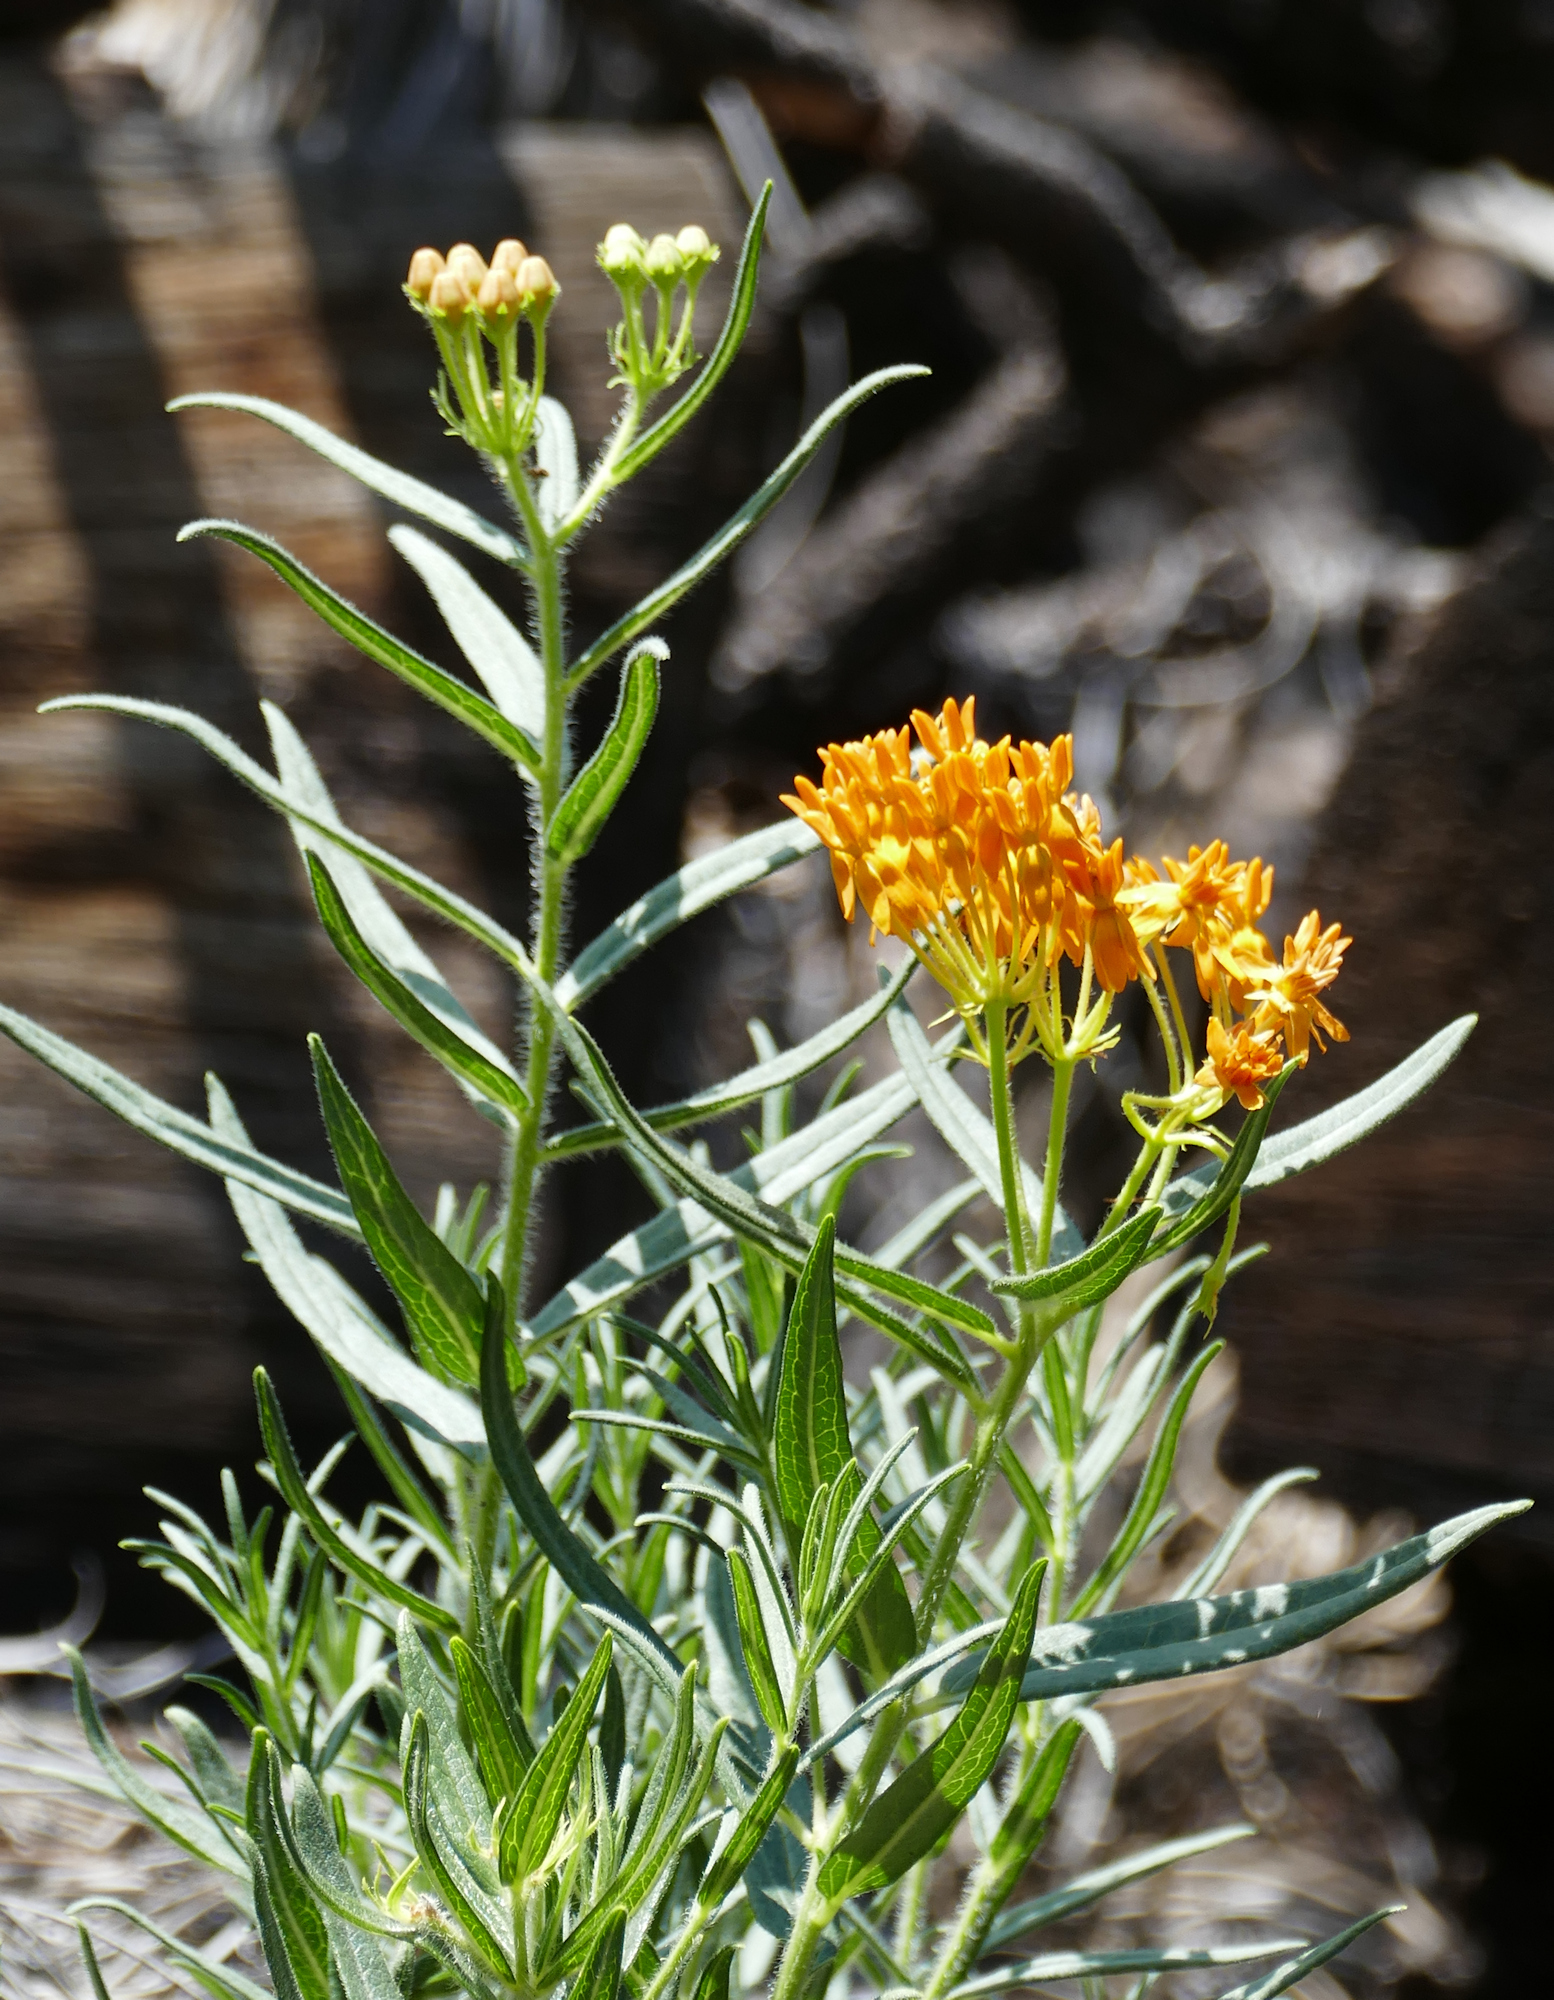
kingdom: Plantae
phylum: Tracheophyta
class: Magnoliopsida
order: Gentianales
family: Apocynaceae
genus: Asclepias
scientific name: Asclepias tuberosa
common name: Butterfly milkweed
